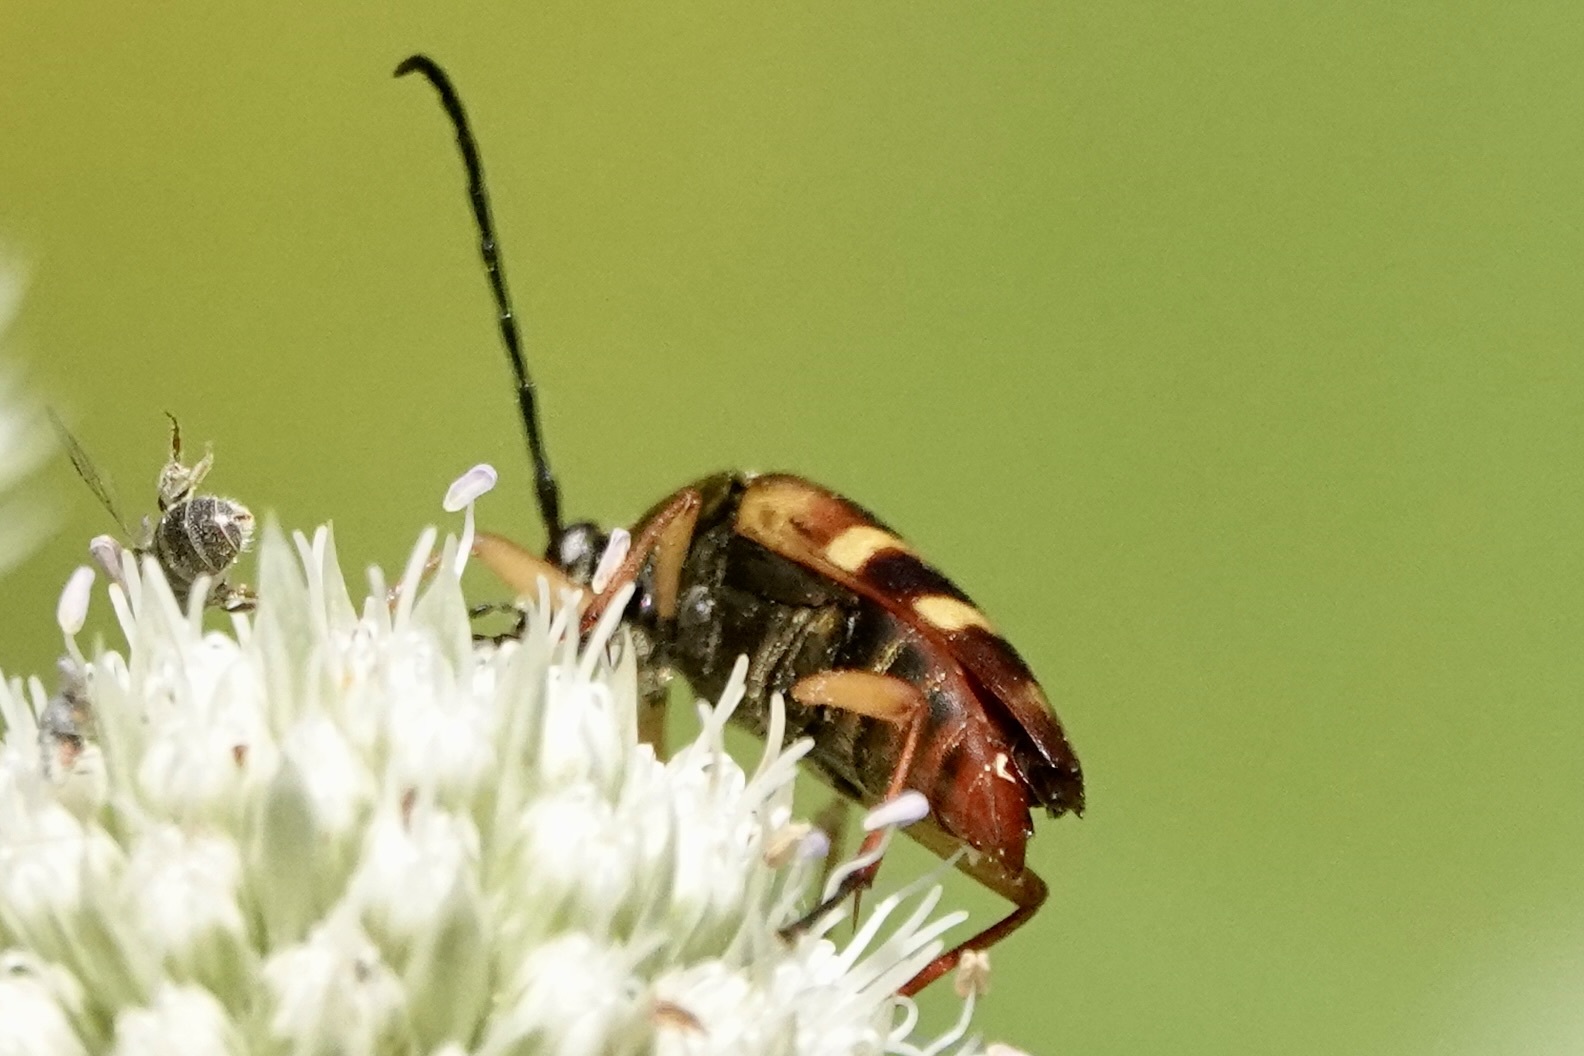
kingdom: Animalia
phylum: Arthropoda
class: Insecta
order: Coleoptera
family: Cerambycidae
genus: Typocerus
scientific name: Typocerus velutinus
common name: Banded longhorn beetle
